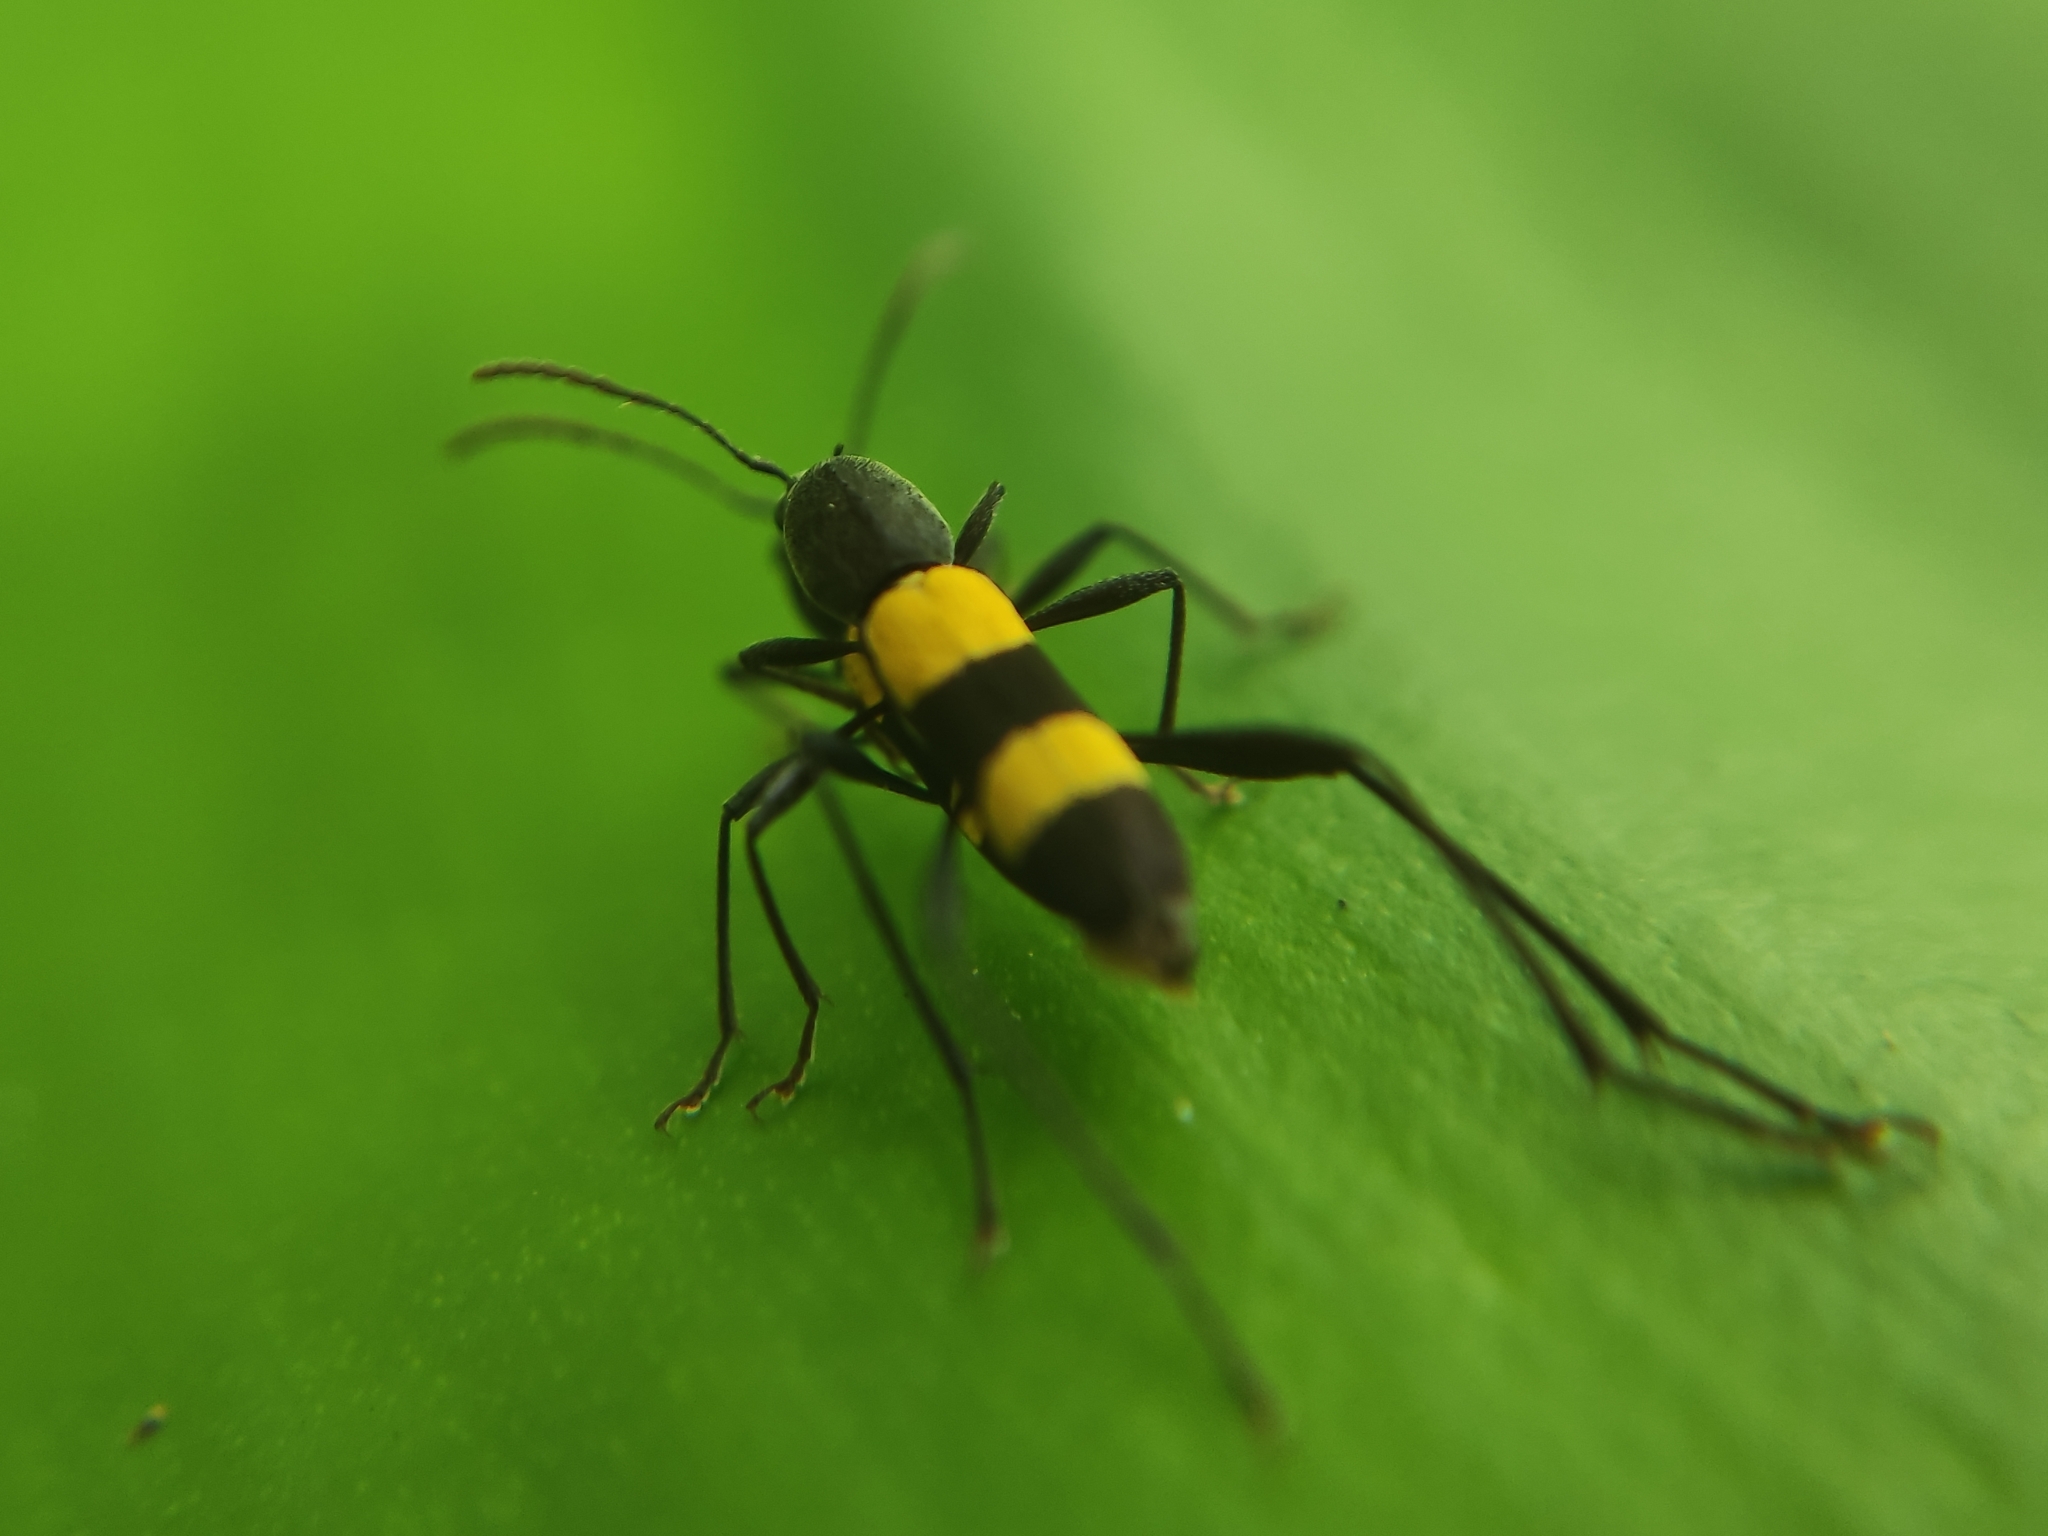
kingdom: Animalia
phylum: Arthropoda
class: Insecta
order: Coleoptera
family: Cerambycidae
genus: Mecometopus
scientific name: Mecometopus bicinctus
